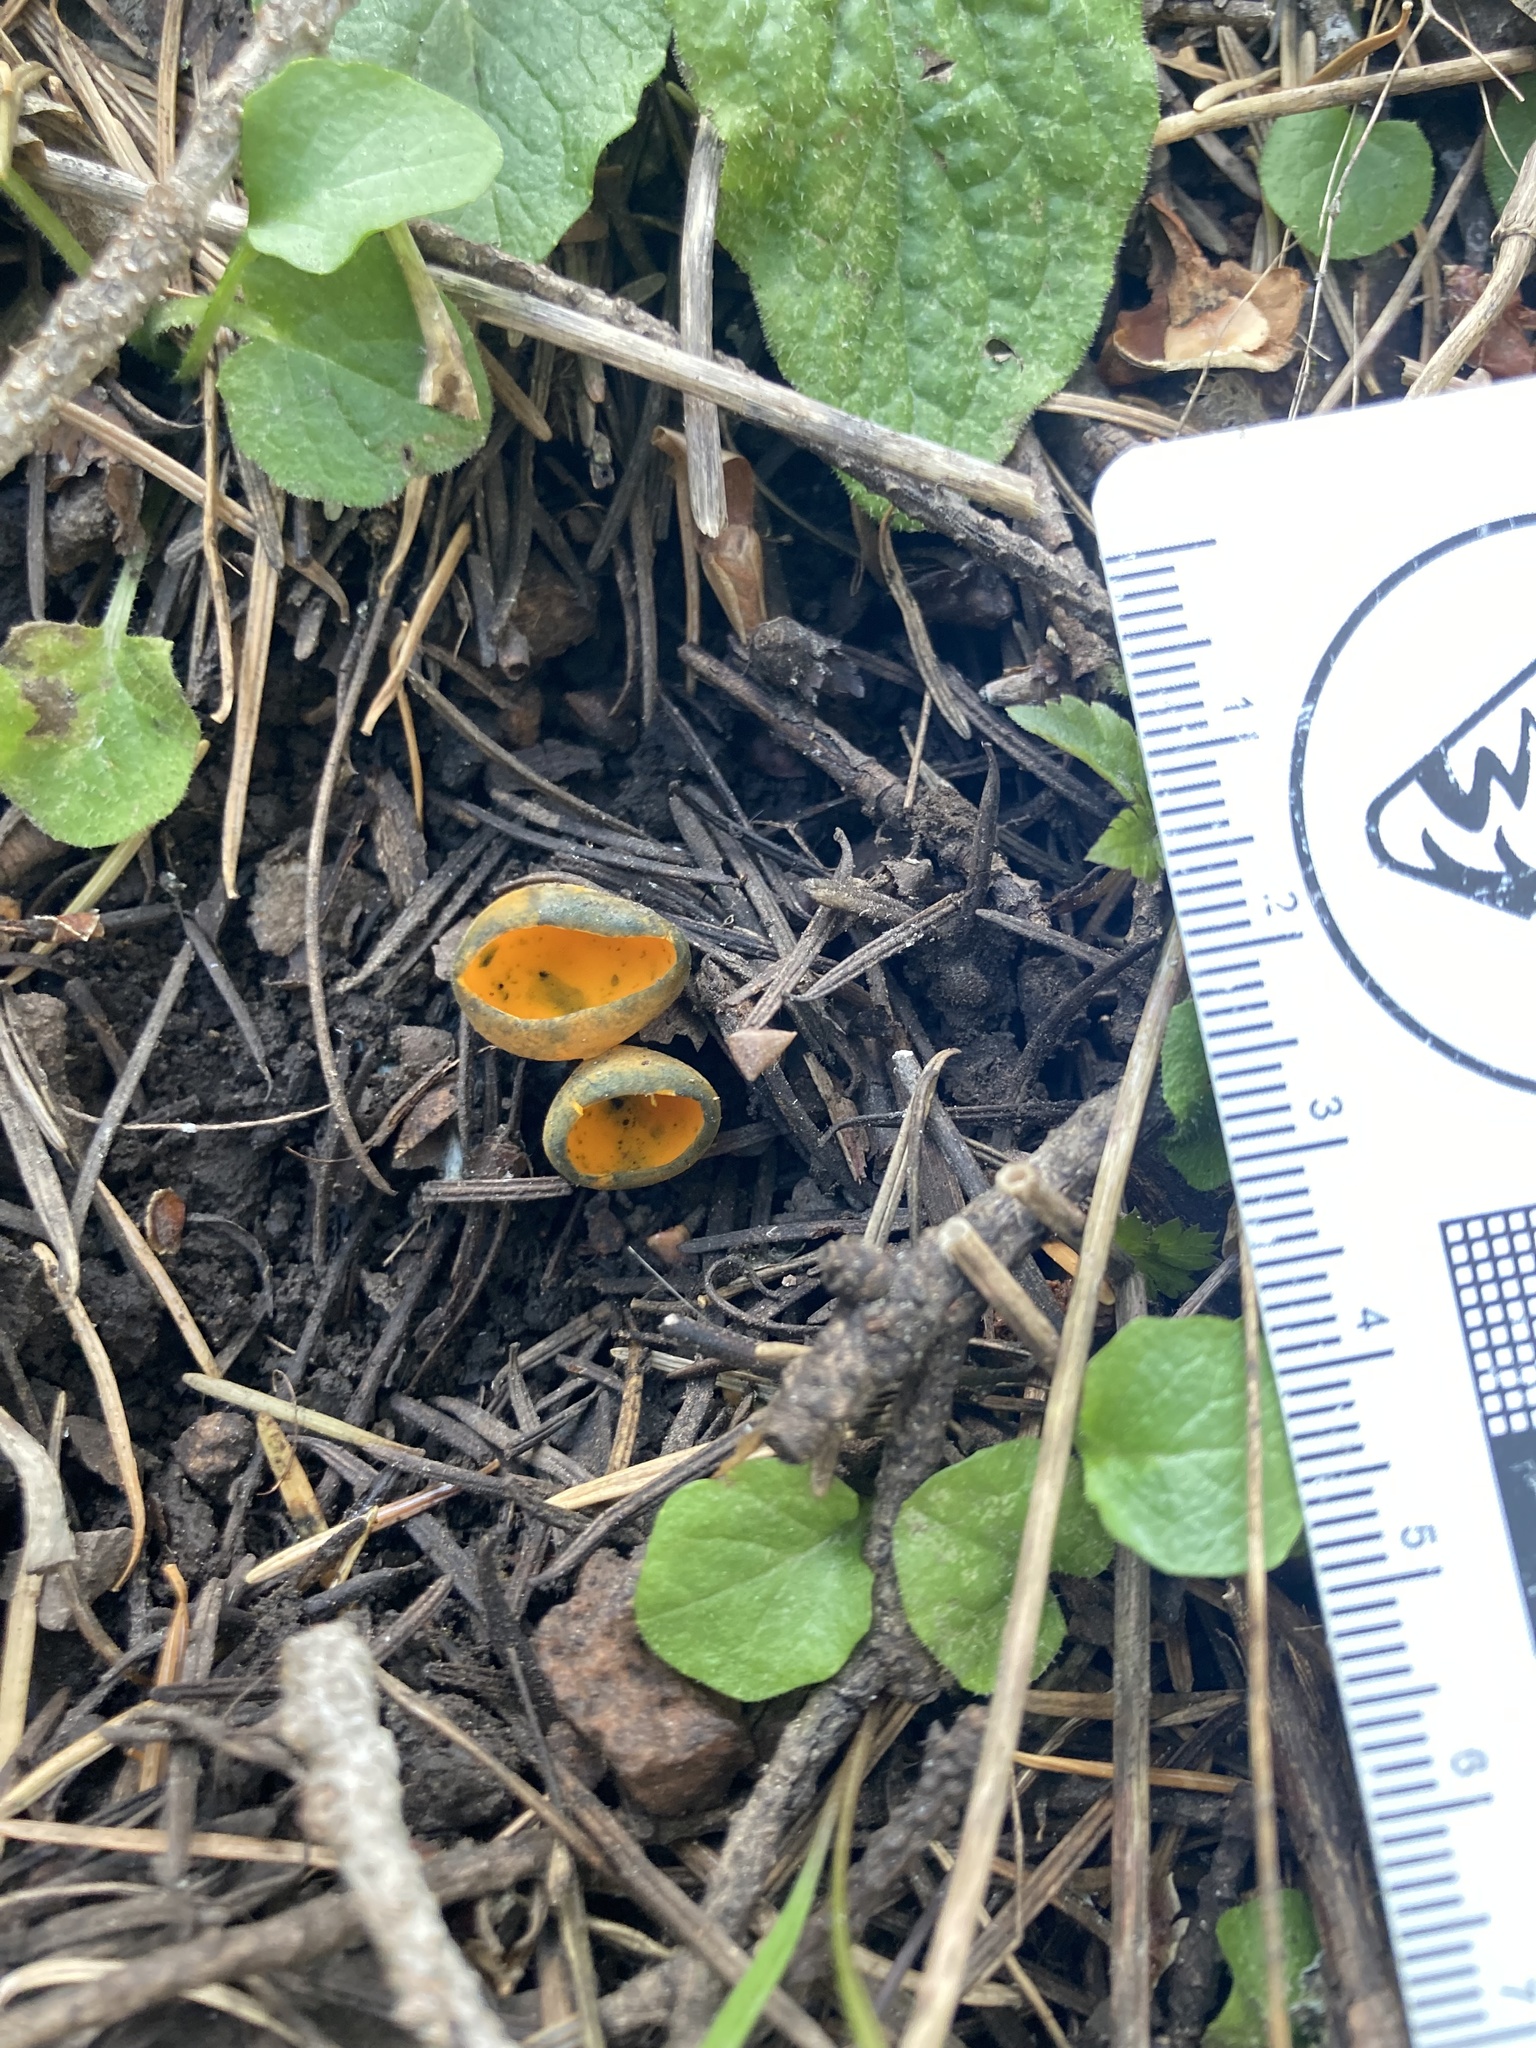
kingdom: Fungi
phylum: Ascomycota
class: Pezizomycetes
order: Pezizales
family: Caloscyphaceae
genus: Caloscypha
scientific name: Caloscypha fulgens
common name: Golden cup
